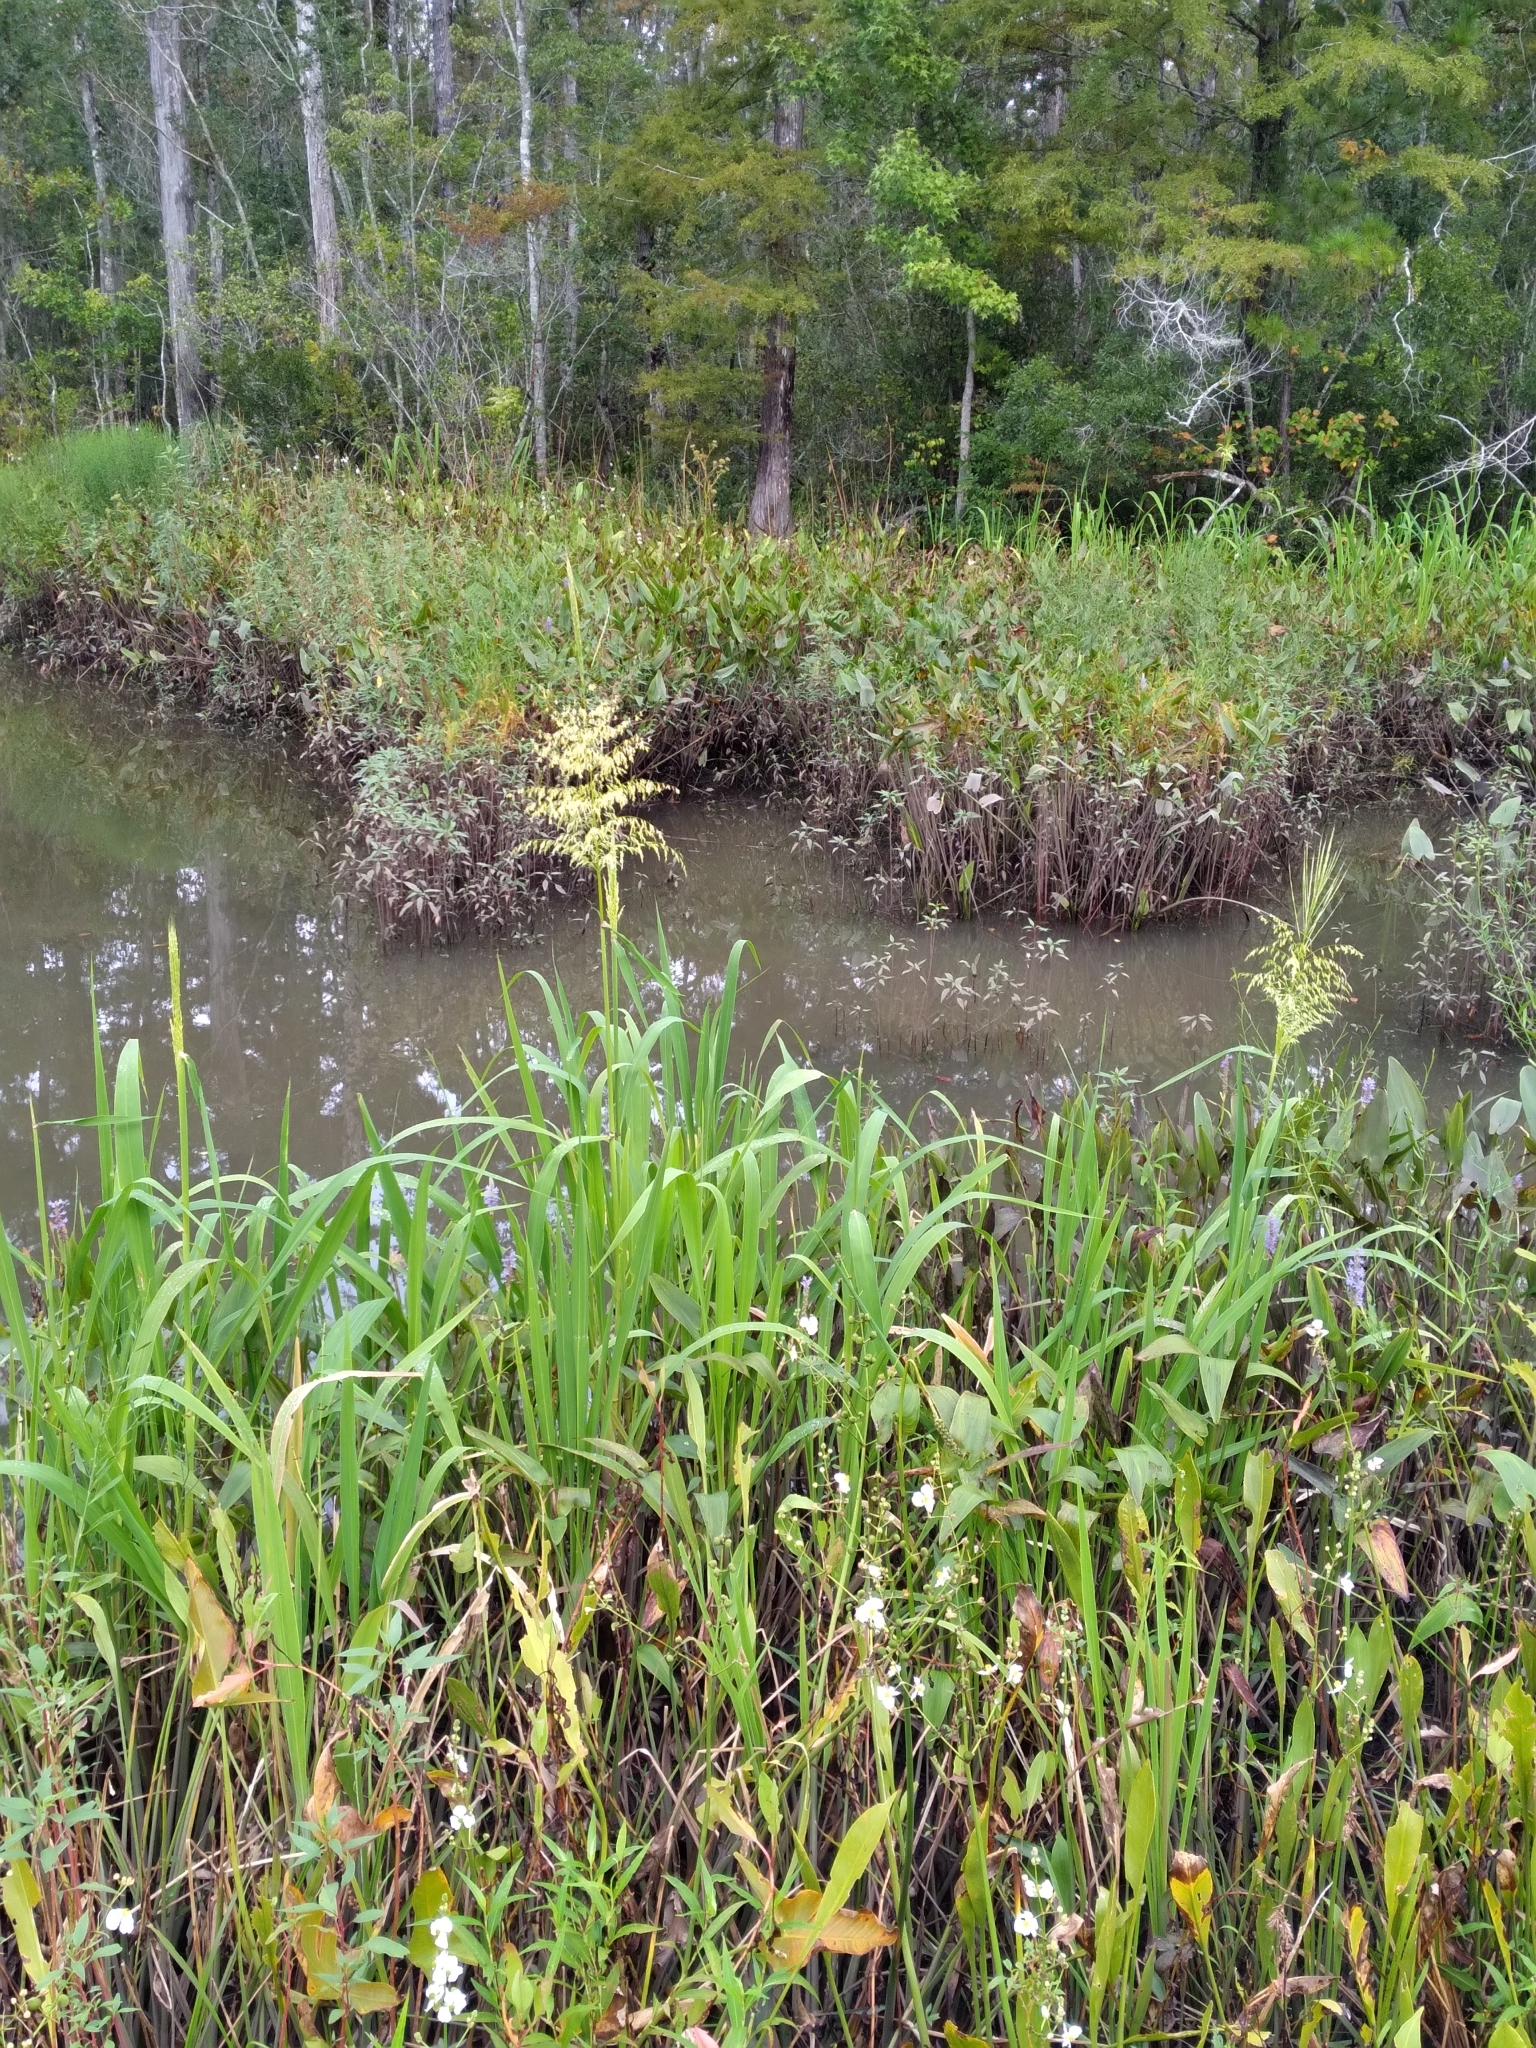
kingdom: Plantae
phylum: Tracheophyta
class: Liliopsida
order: Poales
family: Poaceae
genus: Zizania
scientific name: Zizania aquatica
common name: Annual wildrice
